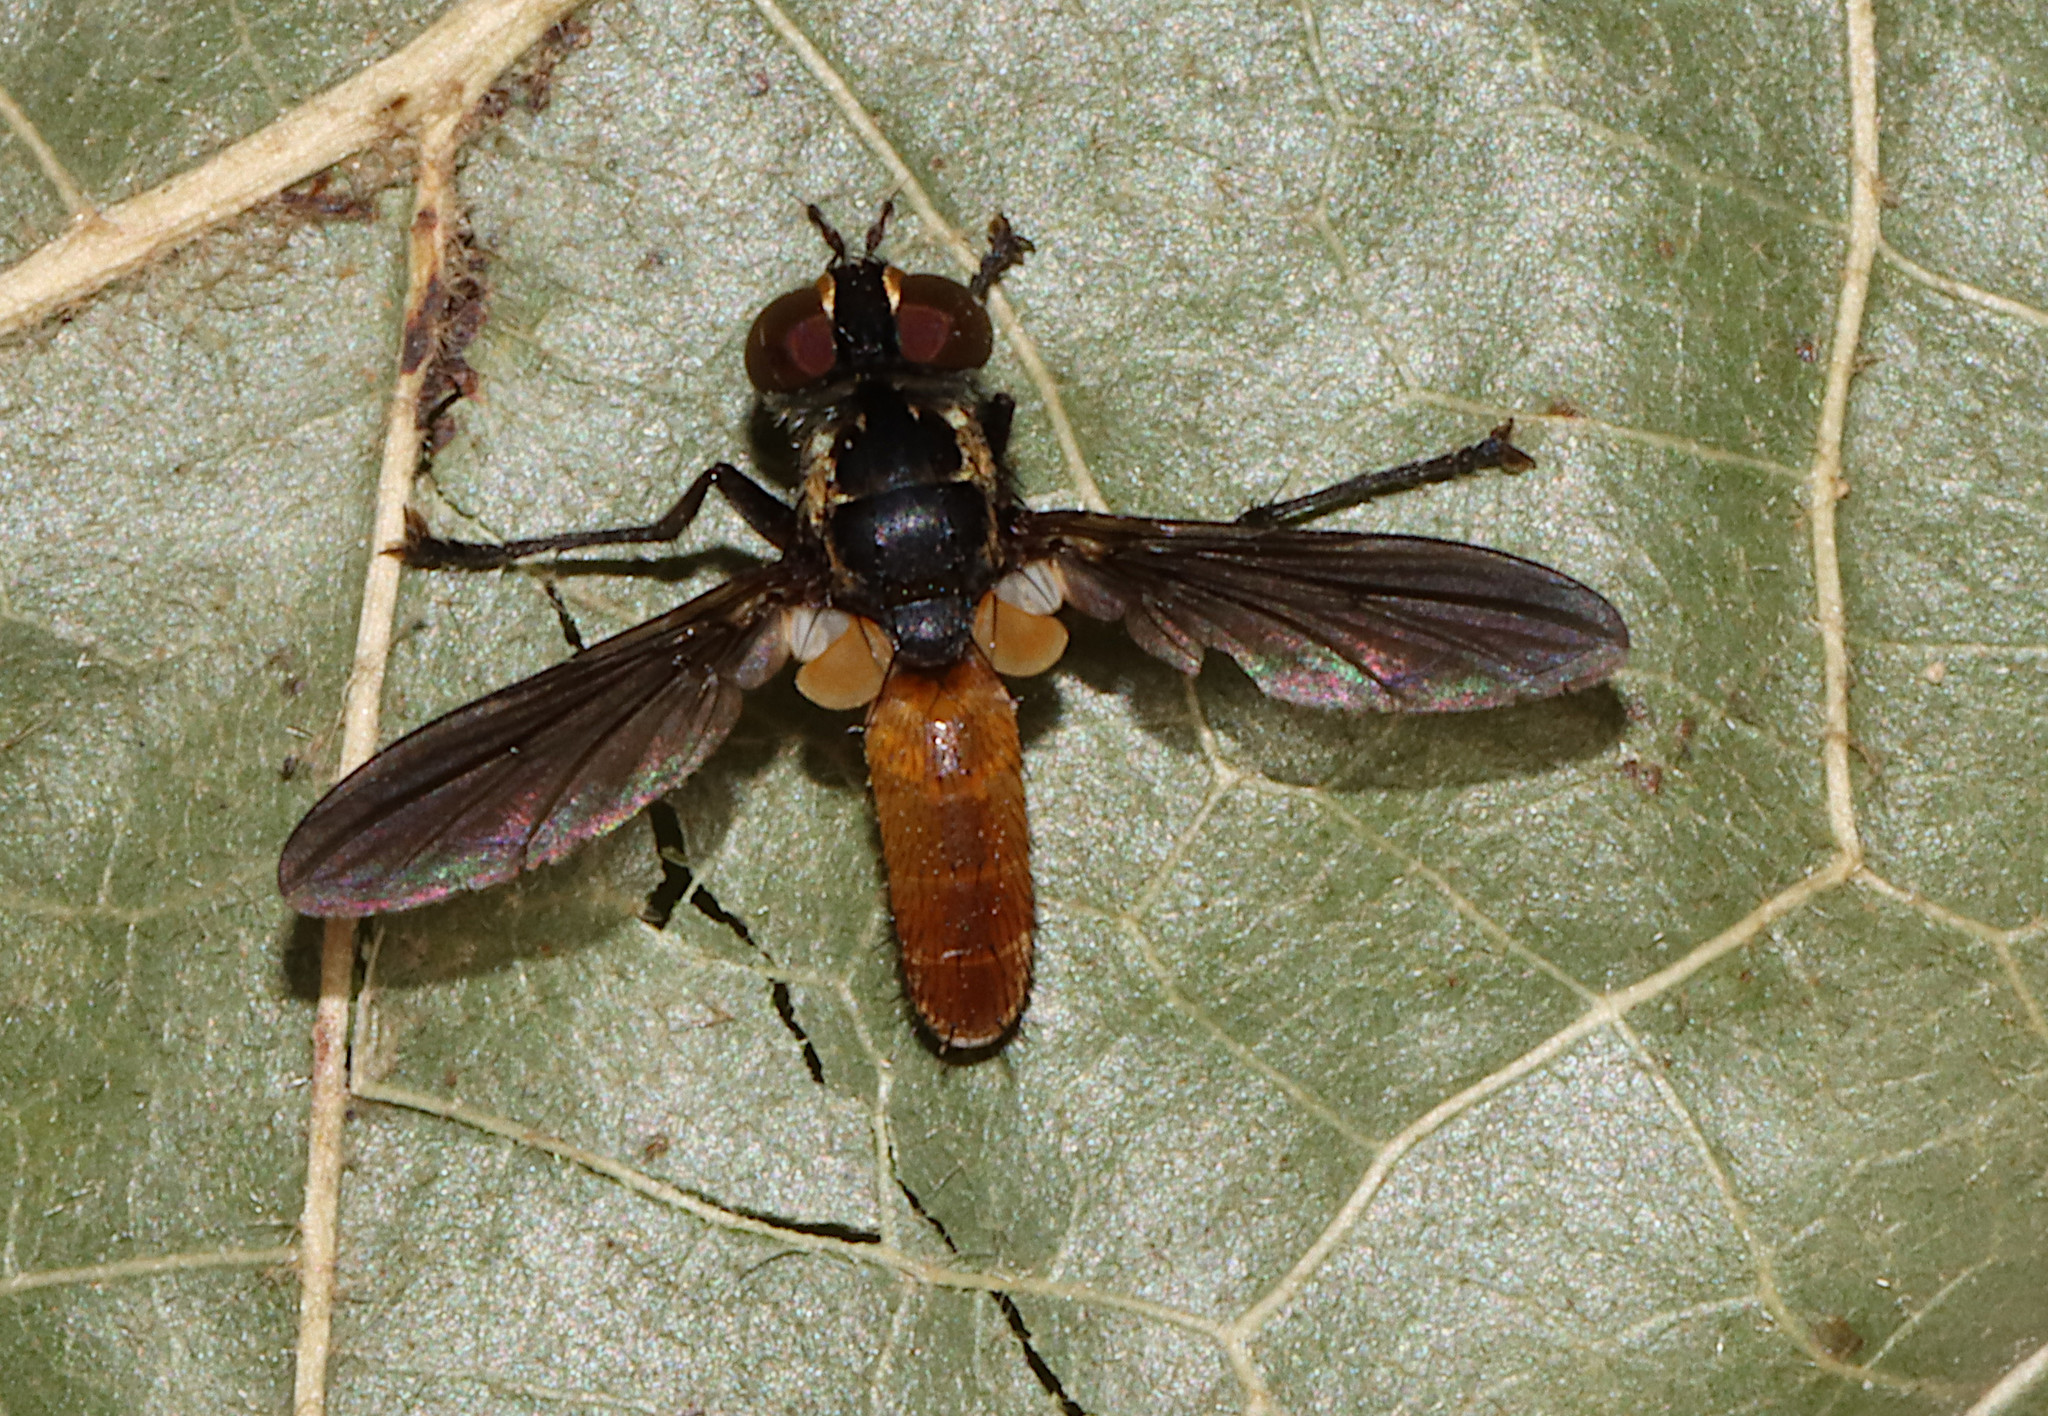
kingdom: Animalia
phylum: Arthropoda
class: Insecta
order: Diptera
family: Tachinidae
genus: Trichopoda
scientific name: Trichopoda pennipes
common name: Tachinid fly
